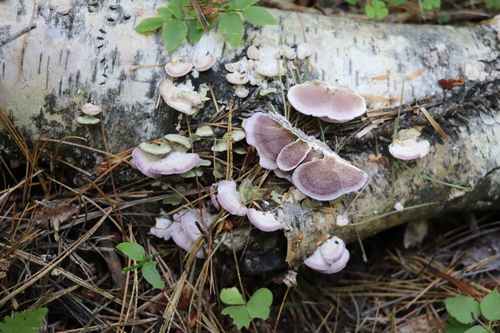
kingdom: Fungi
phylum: Basidiomycota
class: Agaricomycetes
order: Hymenochaetales
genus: Trichaptum
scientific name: Trichaptum biforme
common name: Violet-toothed polypore
